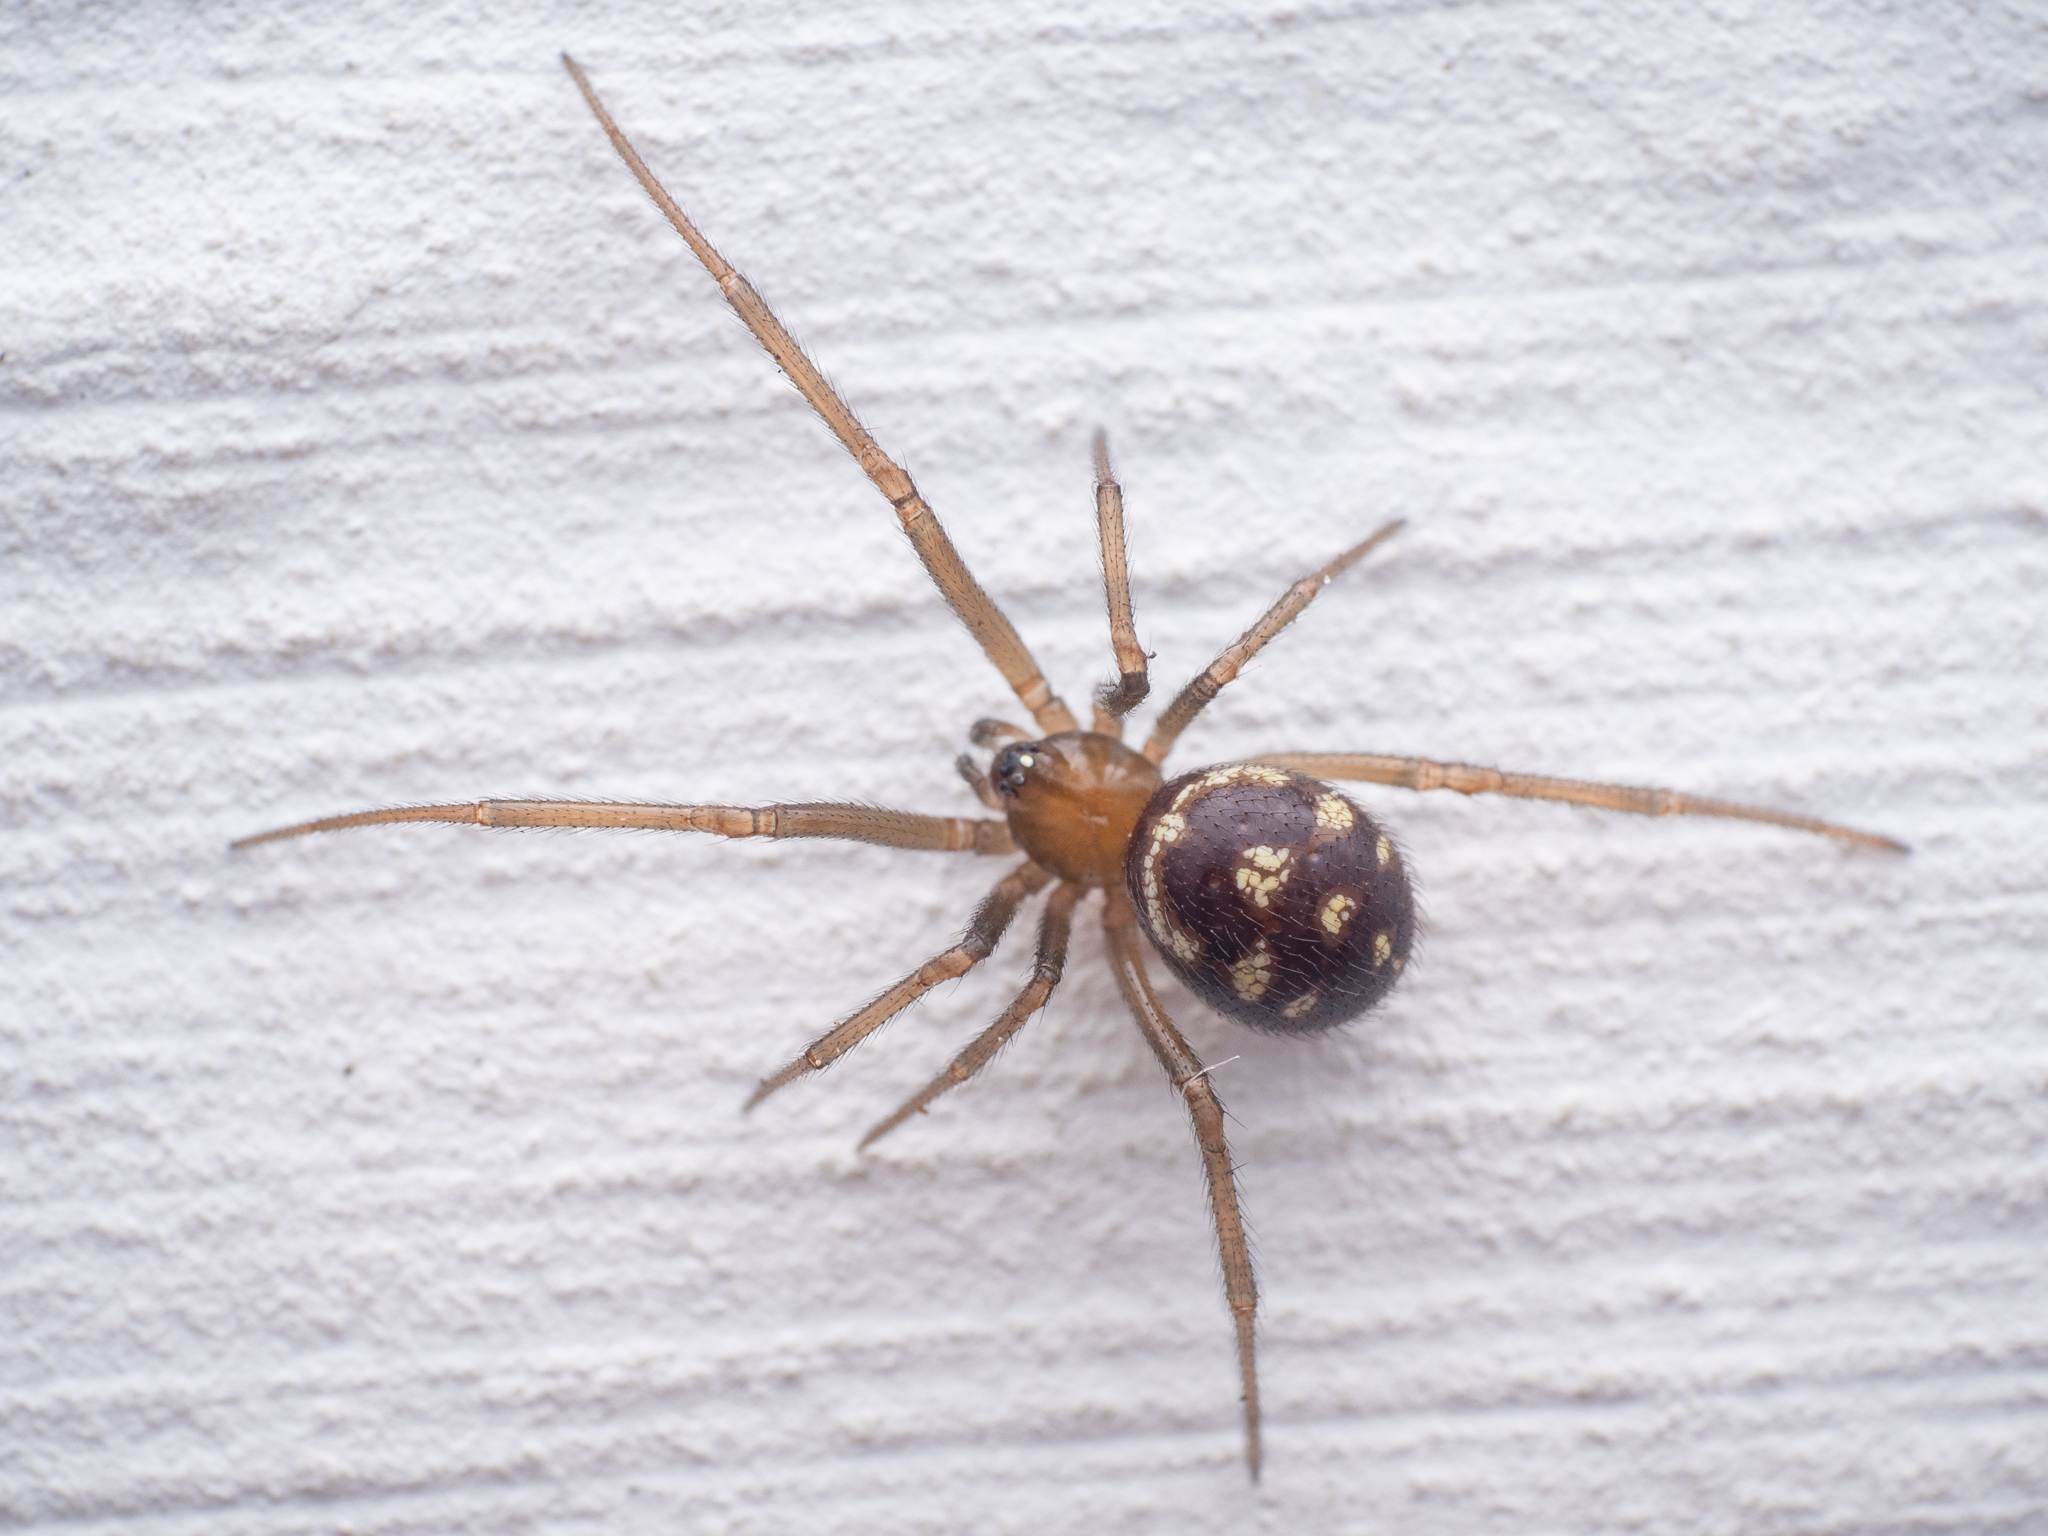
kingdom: Animalia
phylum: Arthropoda
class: Arachnida
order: Araneae
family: Theridiidae
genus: Steatoda
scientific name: Steatoda grossa
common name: False black widow
